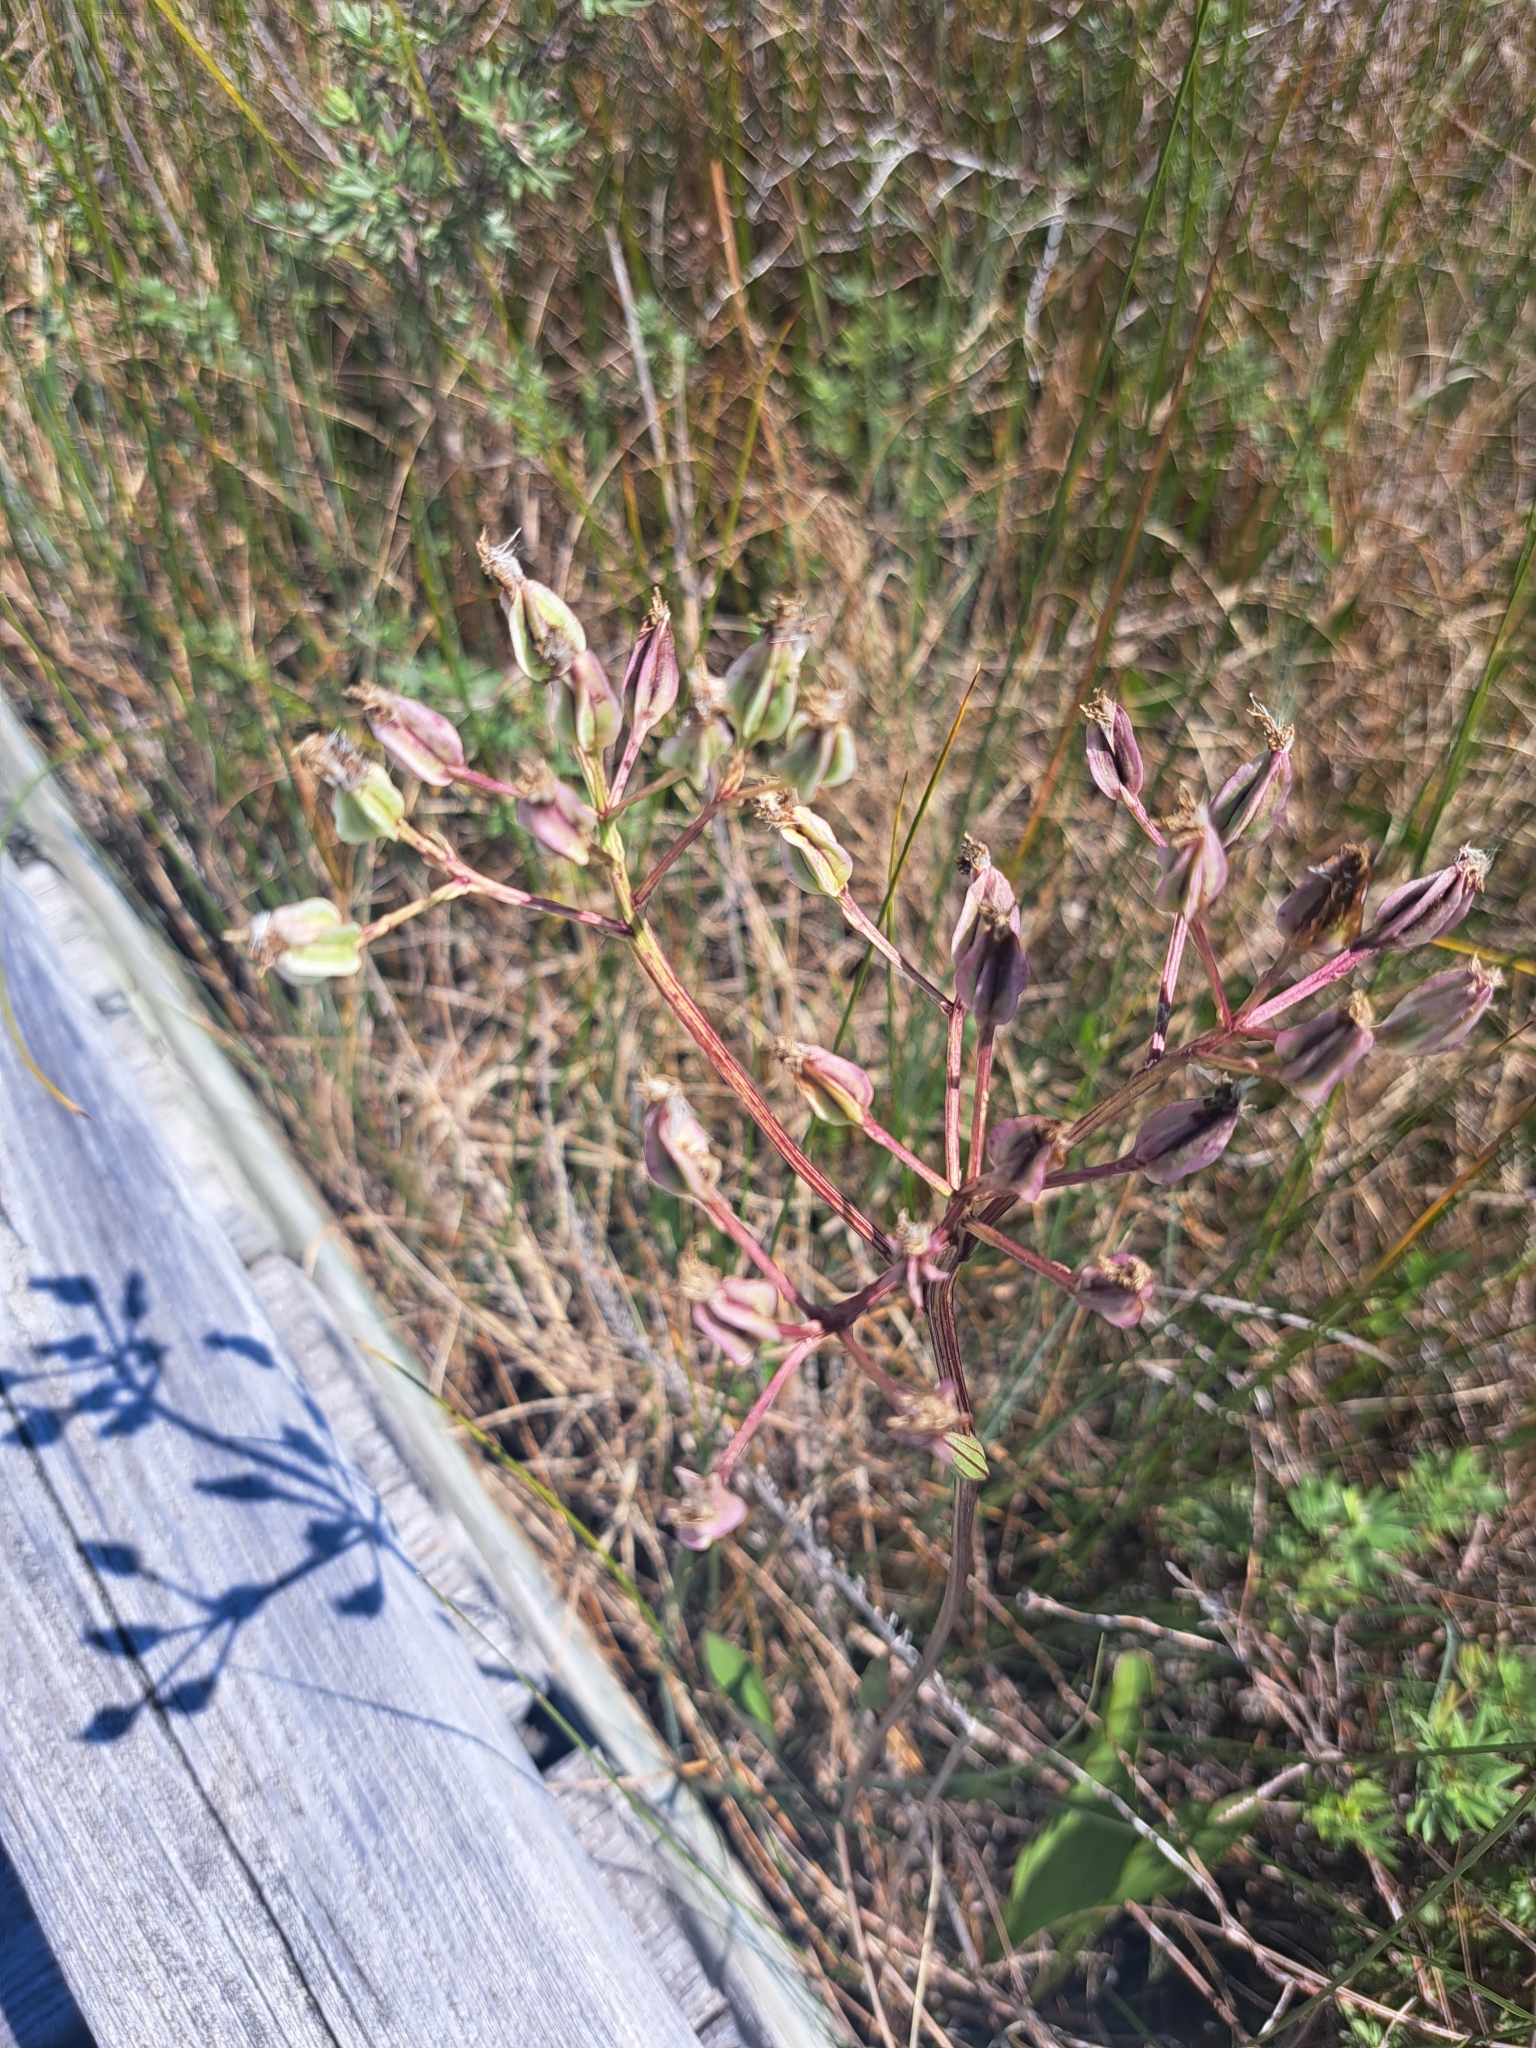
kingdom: Plantae
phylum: Tracheophyta
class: Magnoliopsida
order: Asterales
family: Asteraceae
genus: Arnoglossum
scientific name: Arnoglossum plantagineum
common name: Groove-stemmed indian-plantain
